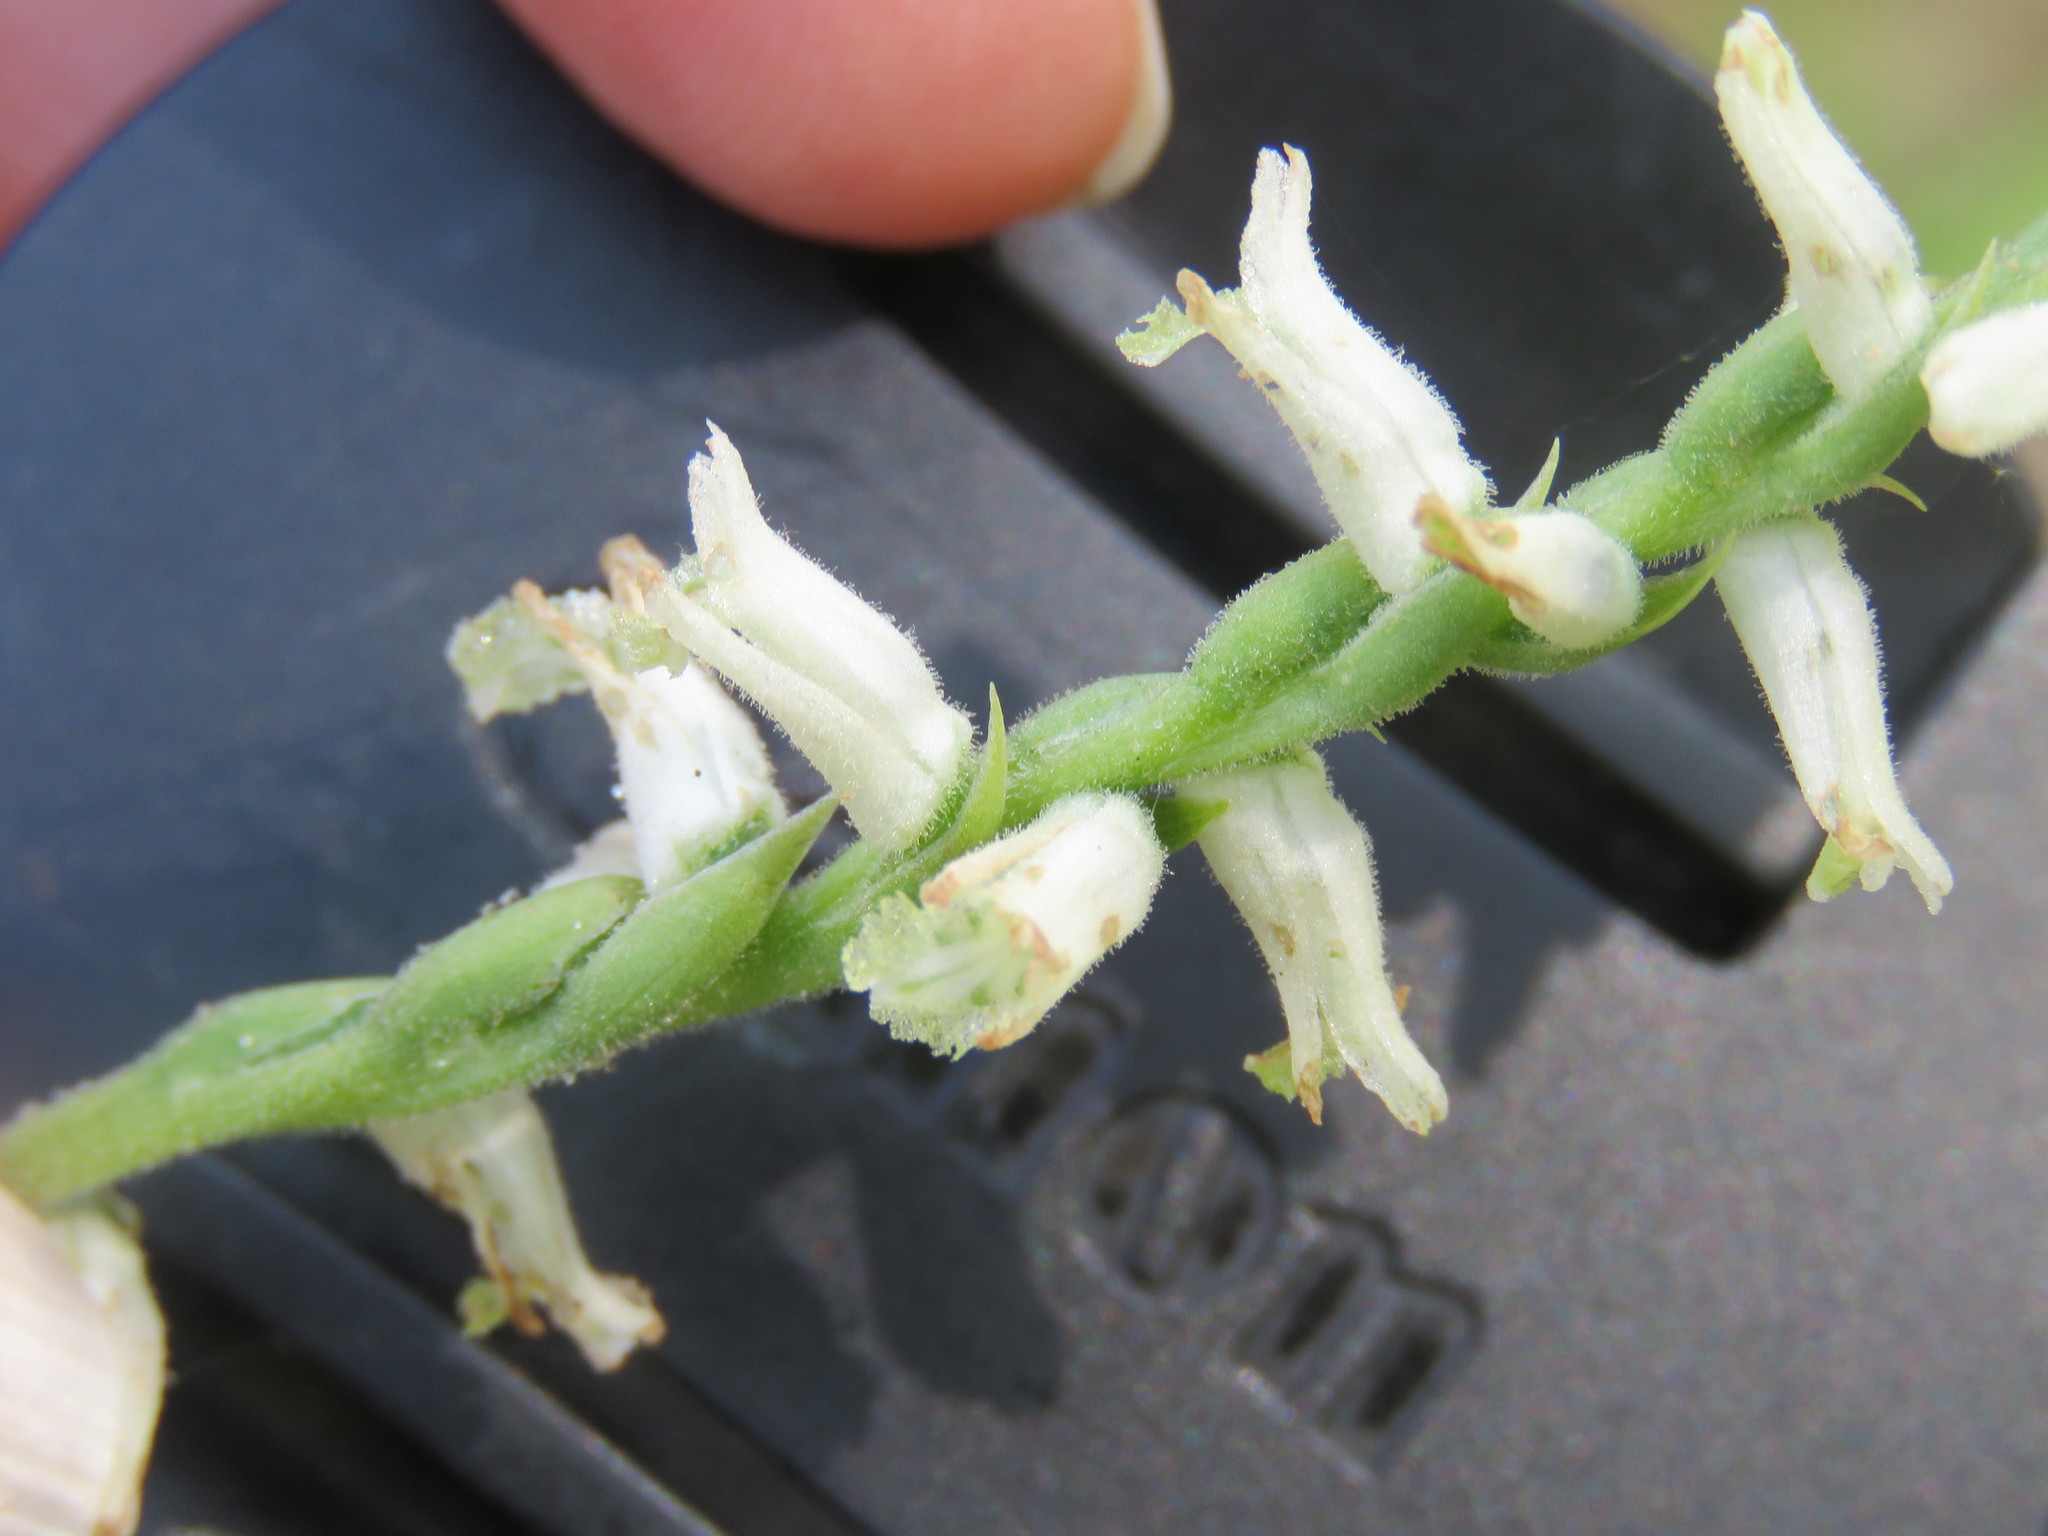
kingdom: Plantae
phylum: Tracheophyta
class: Liliopsida
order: Asparagales
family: Orchidaceae
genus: Spiranthes
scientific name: Spiranthes praecox
